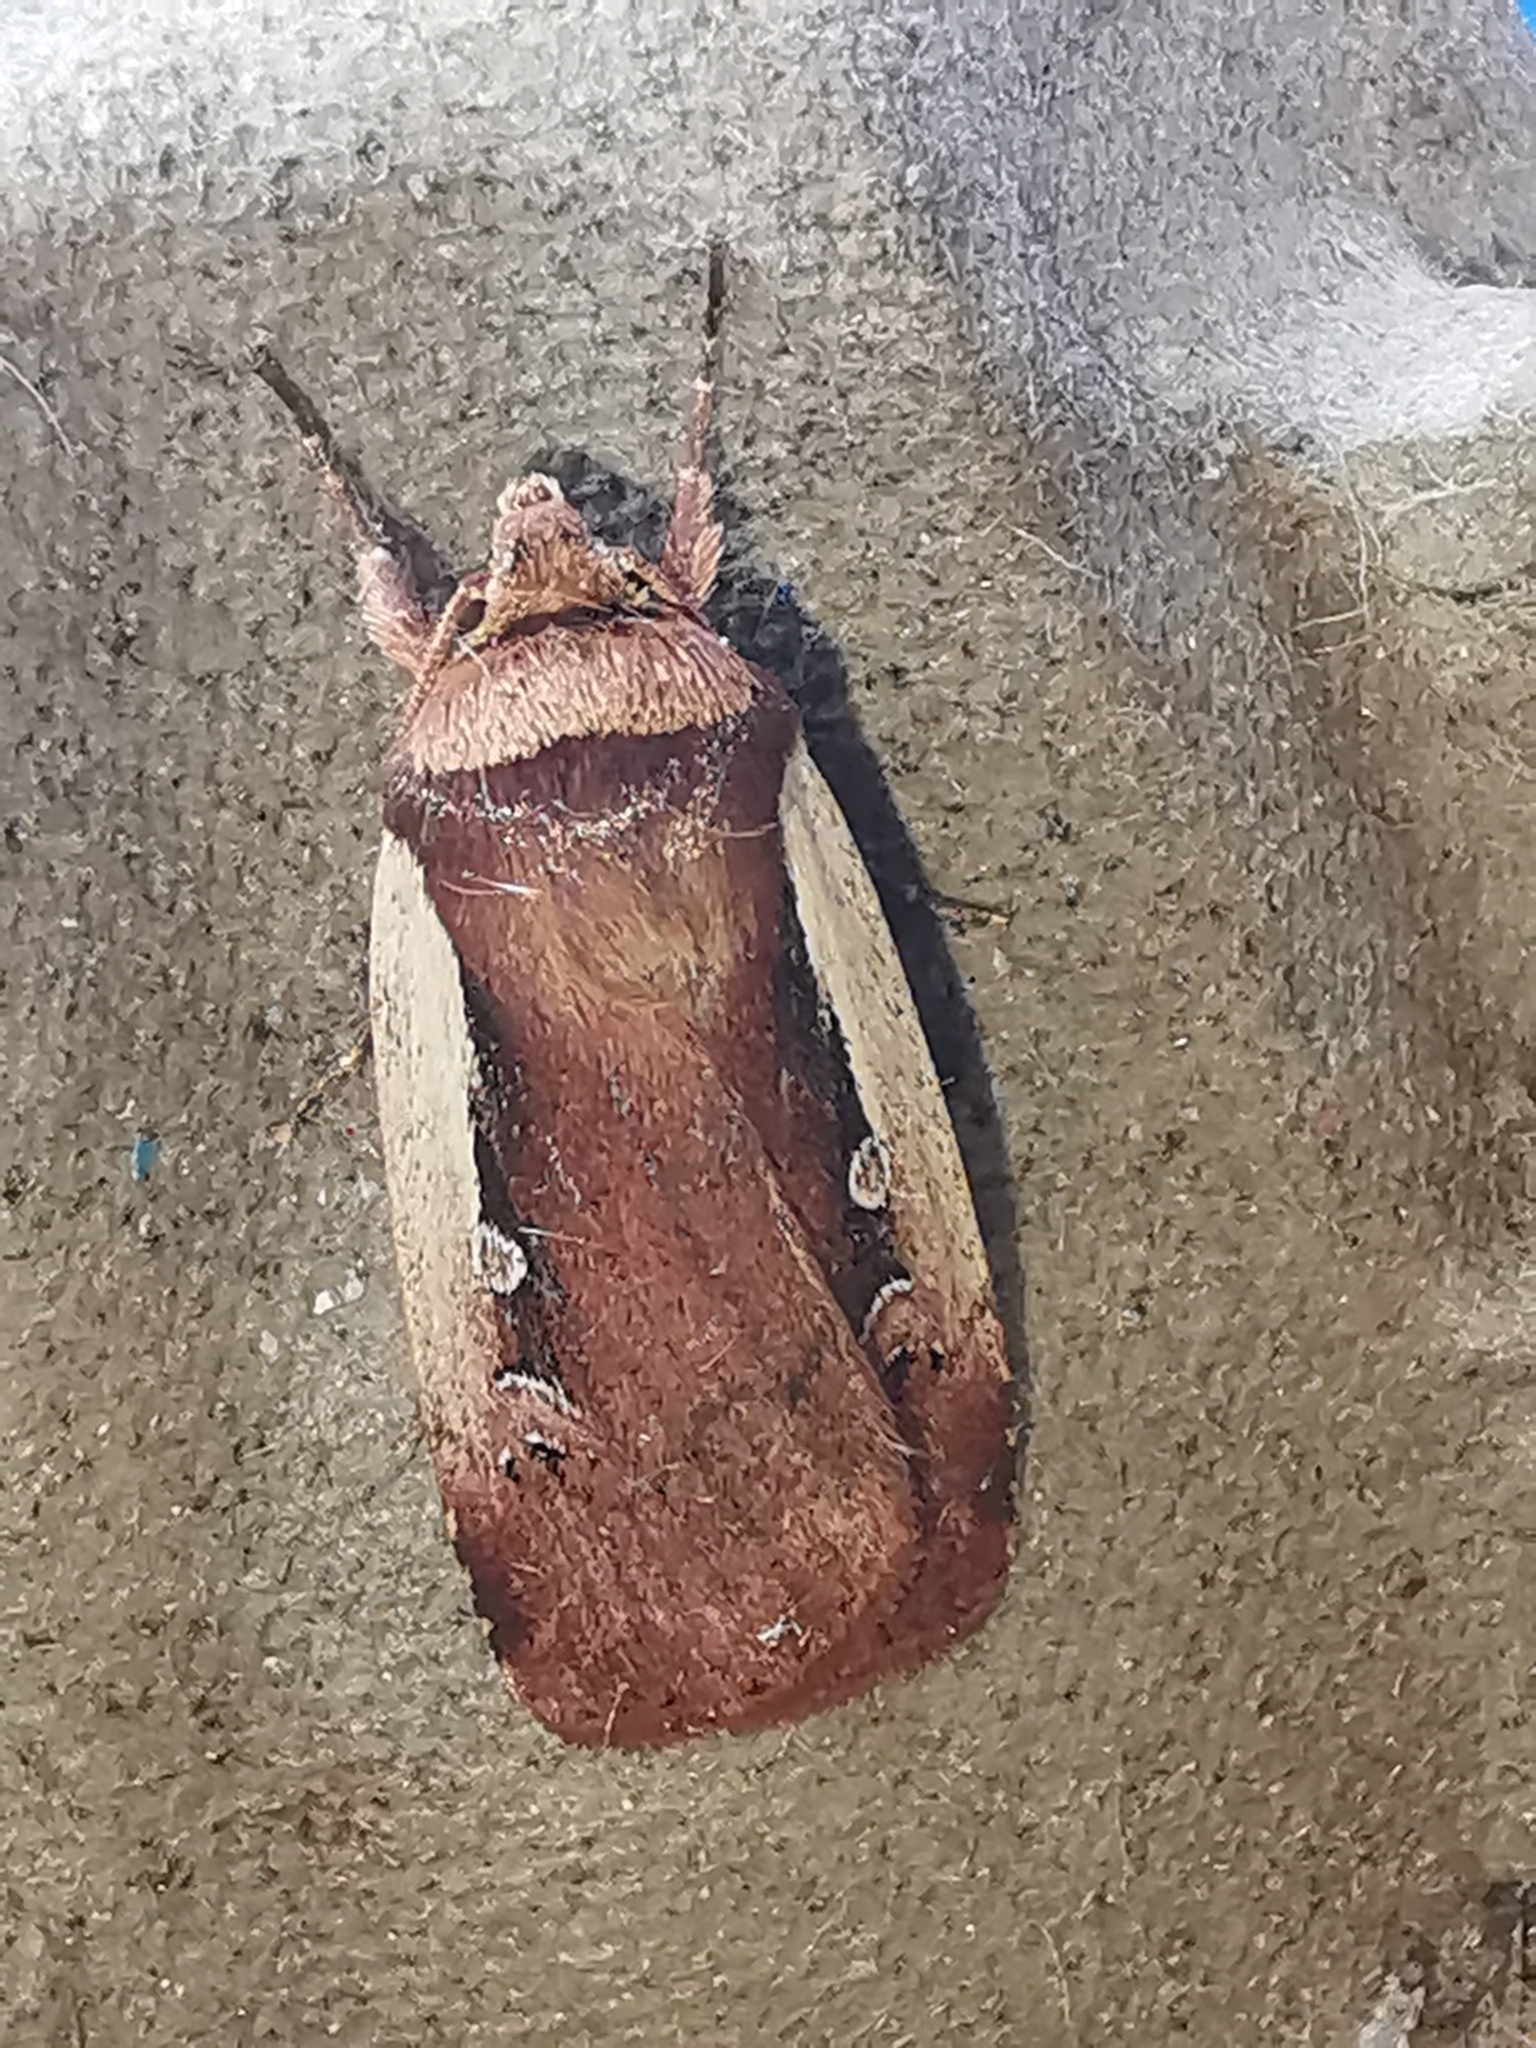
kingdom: Animalia
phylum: Arthropoda
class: Insecta
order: Lepidoptera
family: Noctuidae
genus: Ochropleura
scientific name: Ochropleura plecta
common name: Flame shoulder
